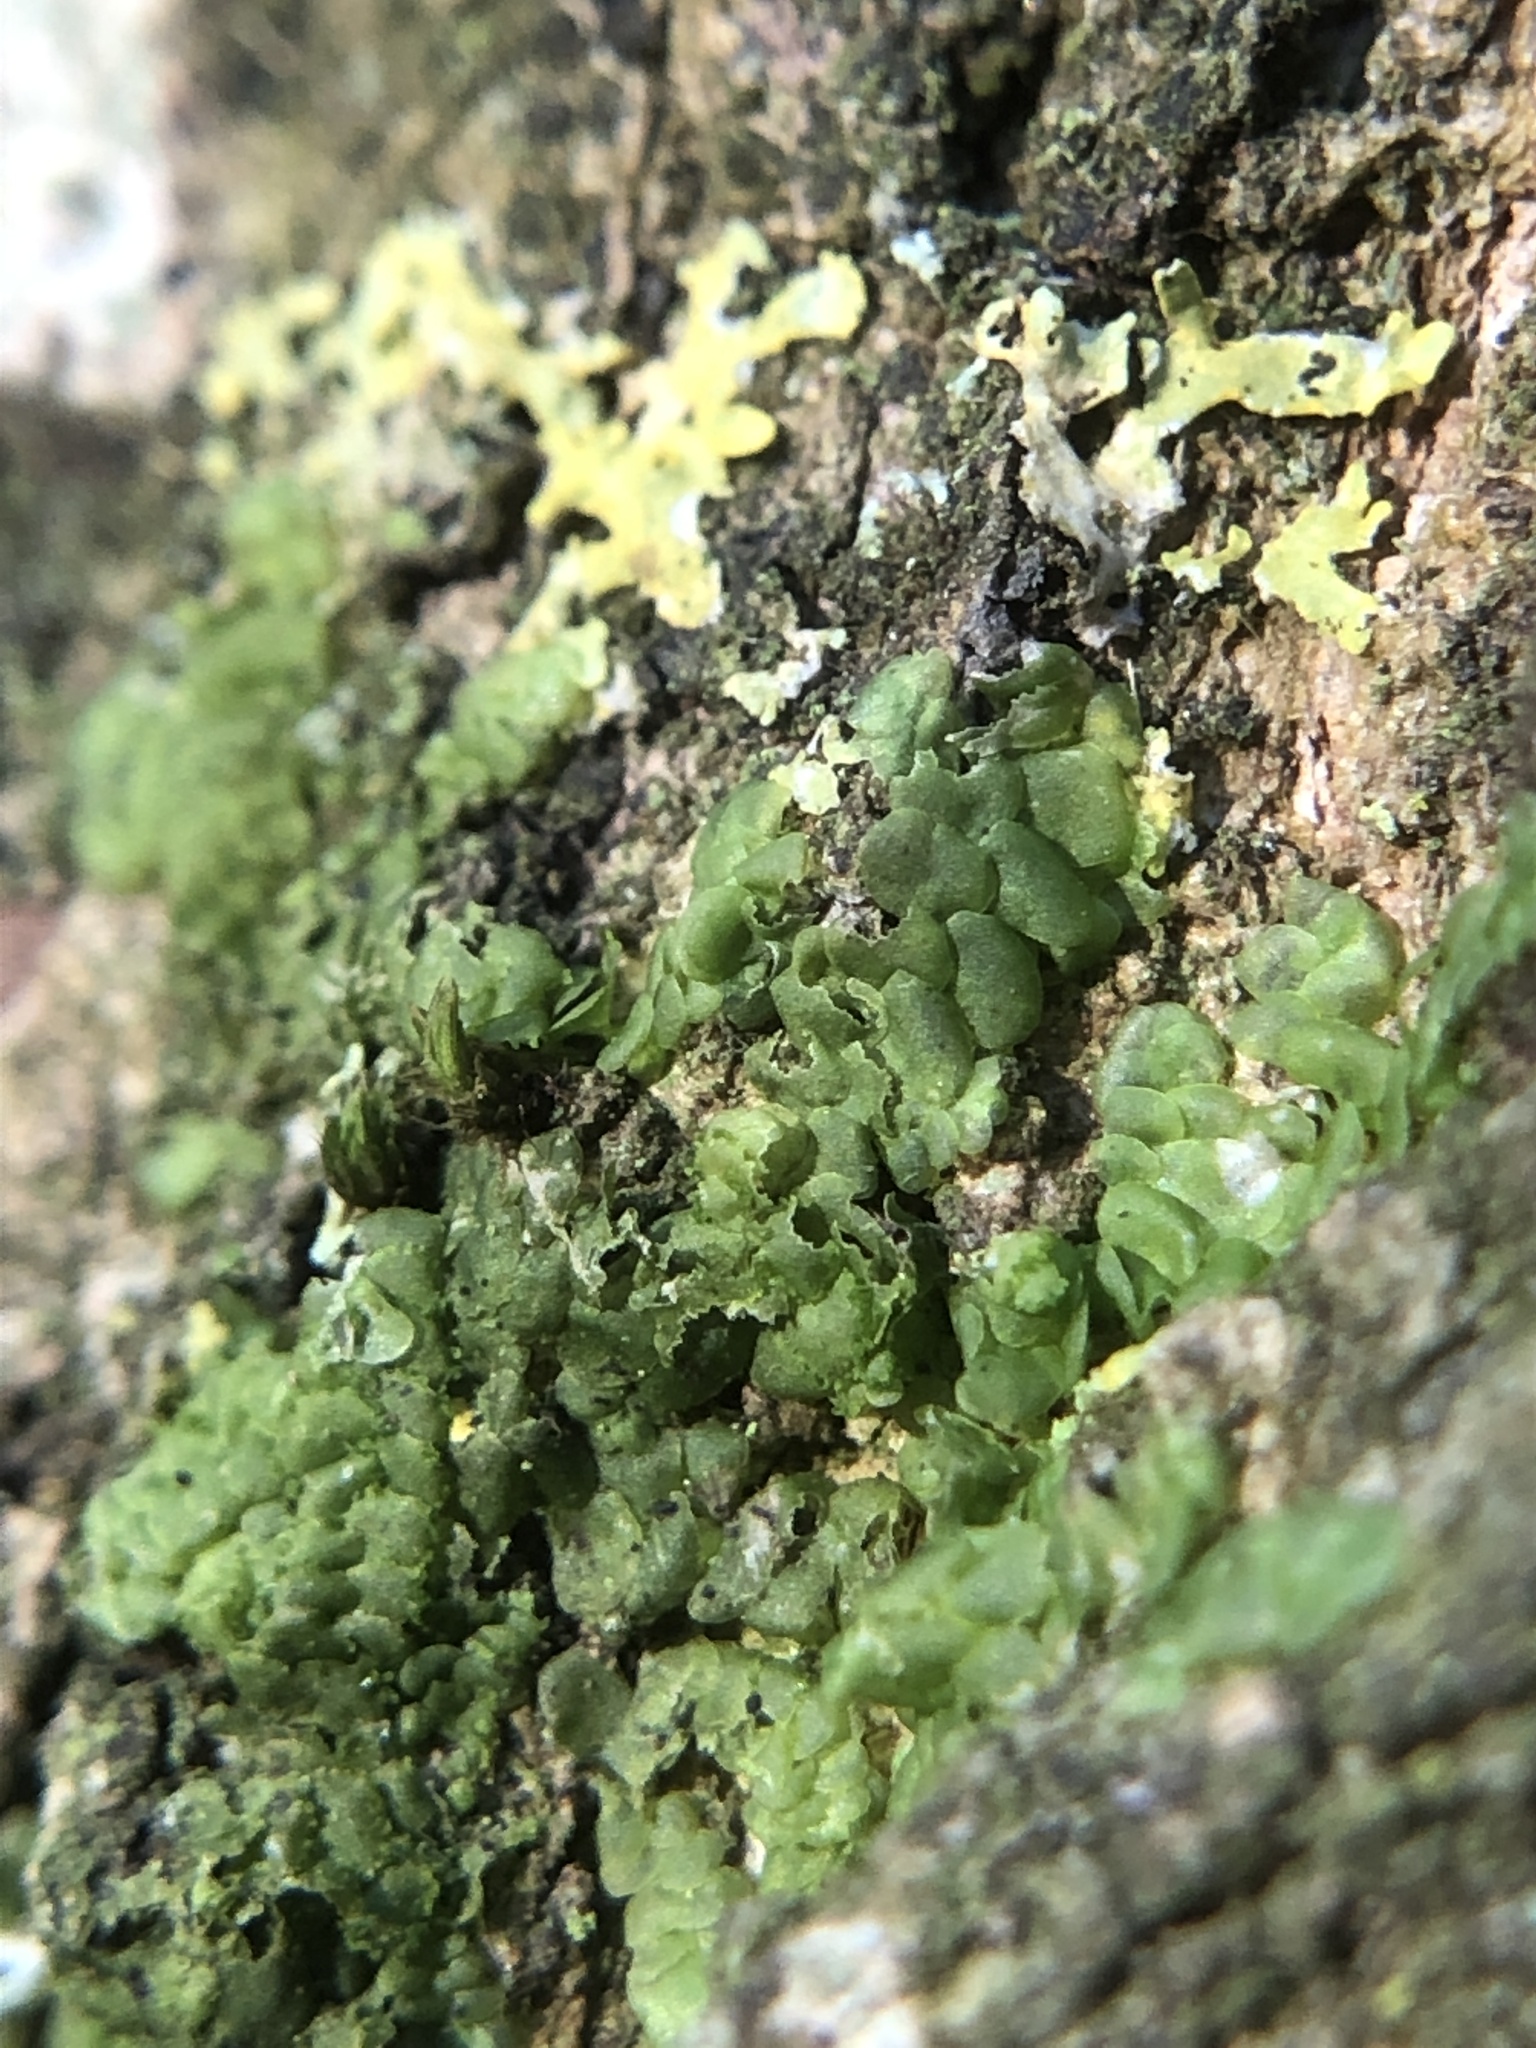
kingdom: Plantae
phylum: Marchantiophyta
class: Jungermanniopsida
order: Porellales
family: Radulaceae
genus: Radula
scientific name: Radula complanata
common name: Flat-leaved scalewort
